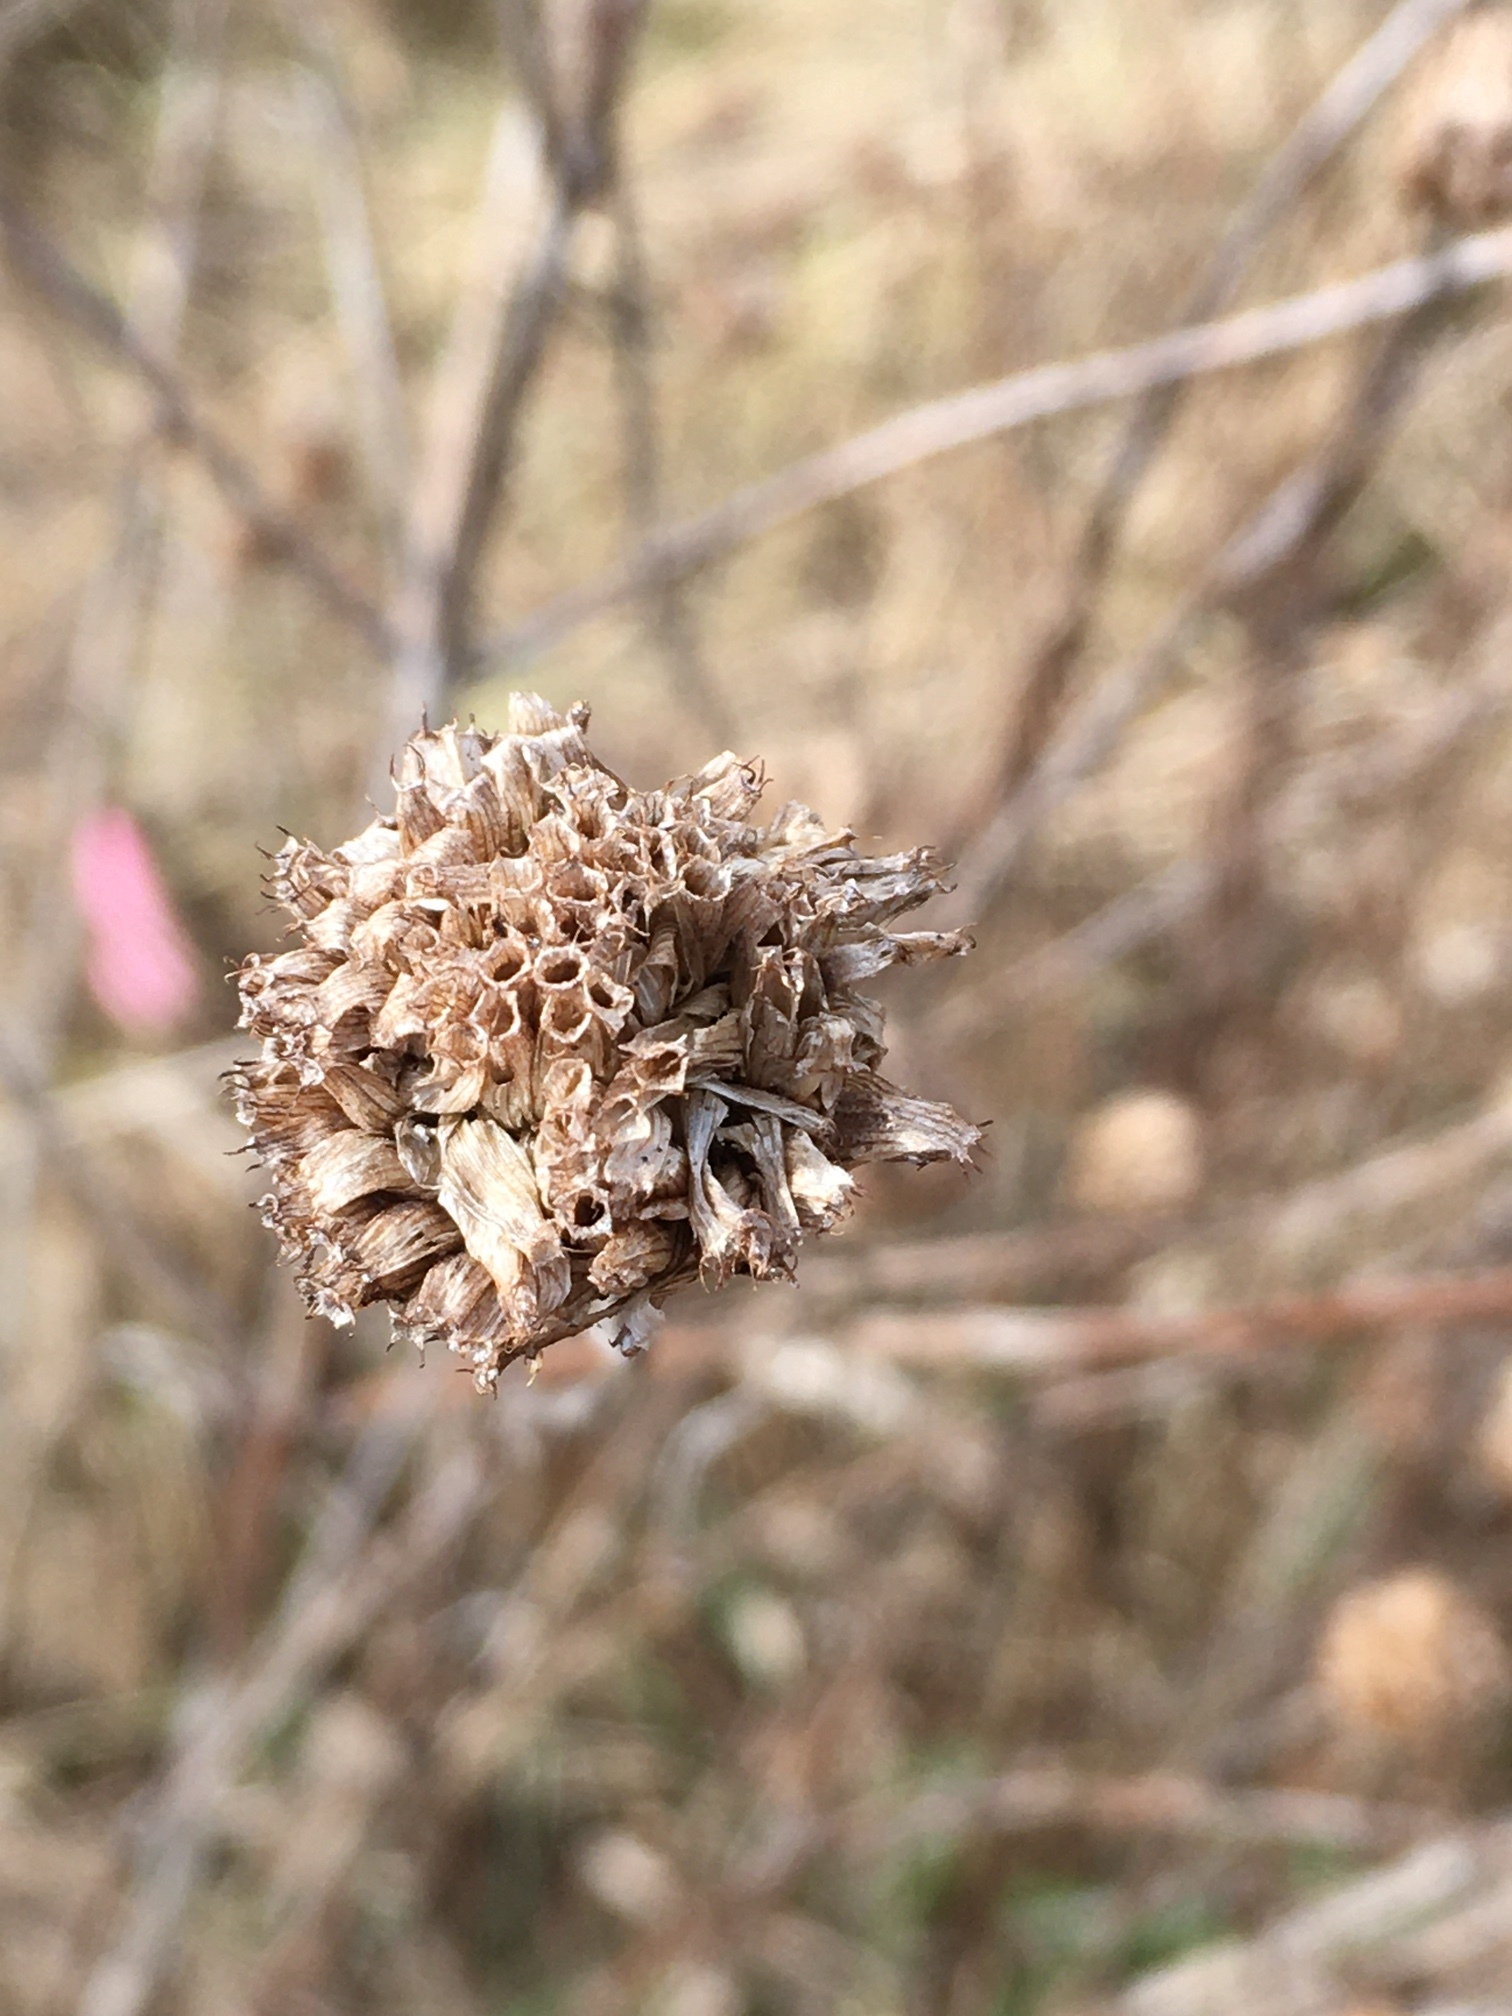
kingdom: Plantae
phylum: Tracheophyta
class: Magnoliopsida
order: Lamiales
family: Lamiaceae
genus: Monarda
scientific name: Monarda fistulosa
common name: Purple beebalm
